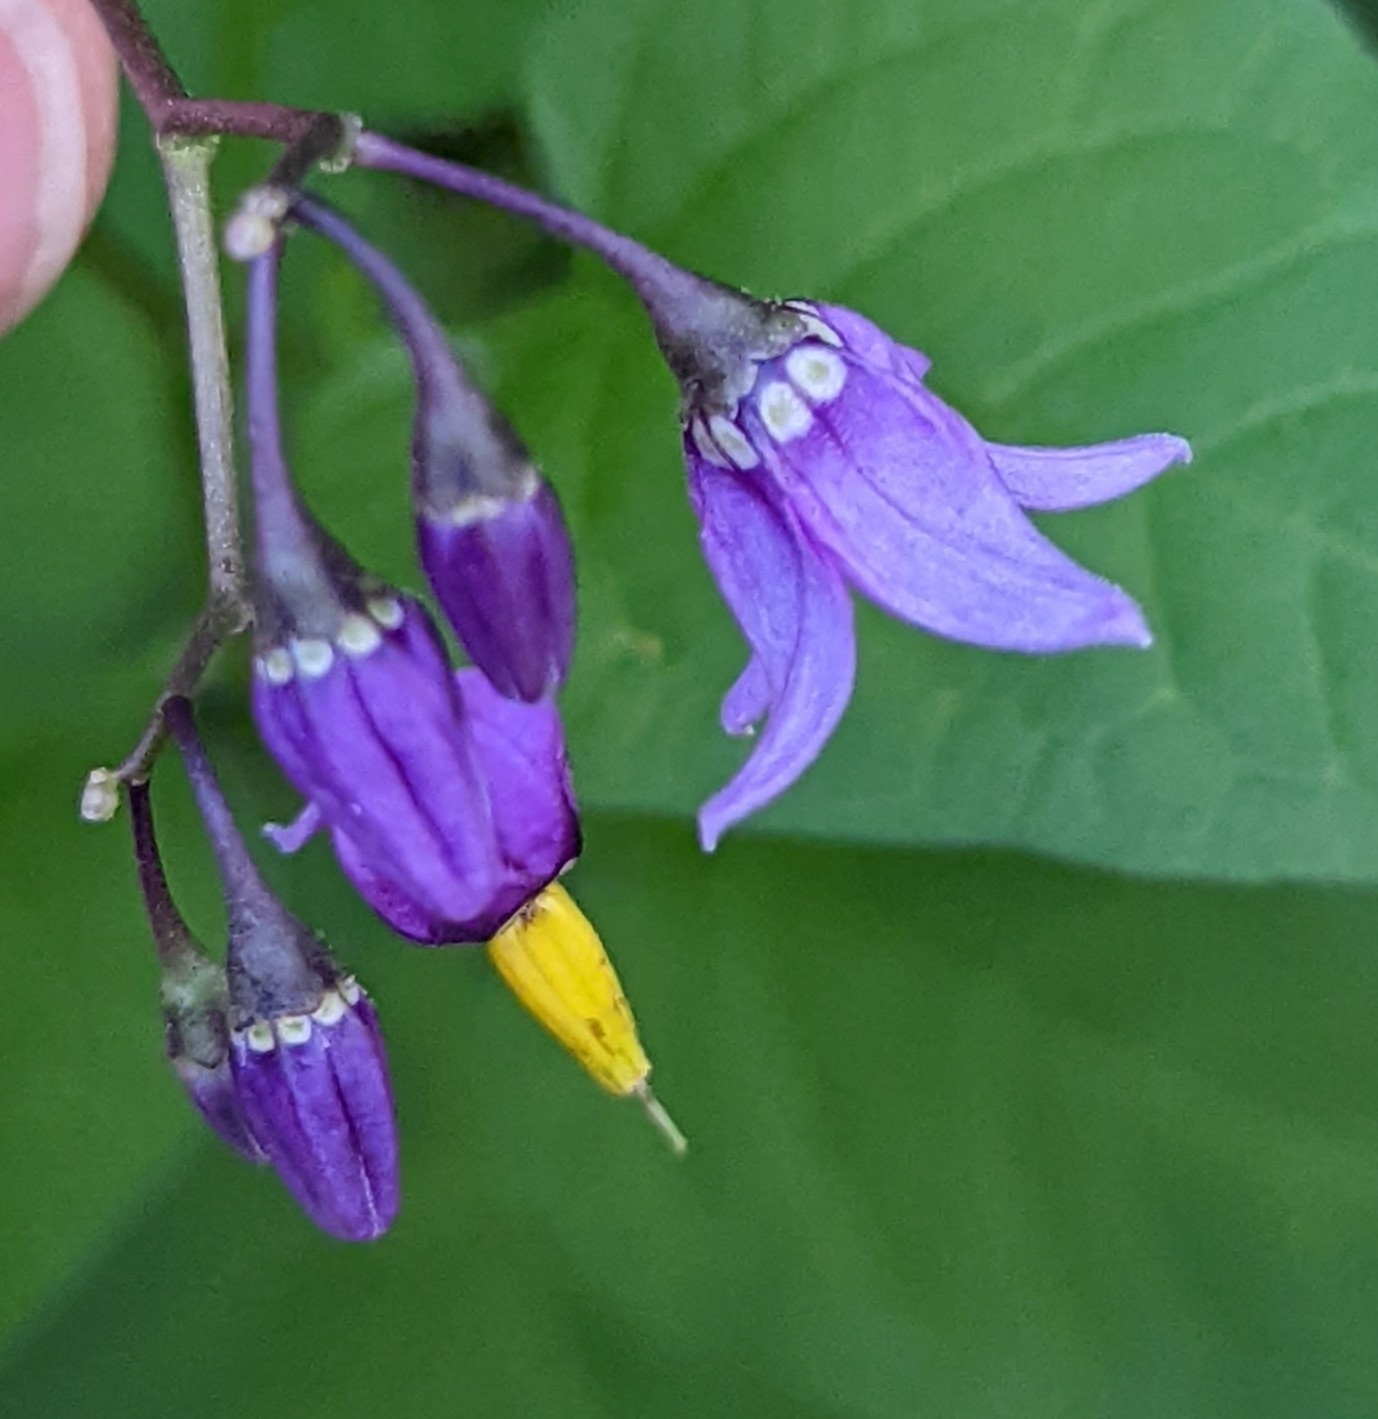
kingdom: Plantae
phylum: Tracheophyta
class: Magnoliopsida
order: Solanales
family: Solanaceae
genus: Solanum
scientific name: Solanum dulcamara
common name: Climbing nightshade
